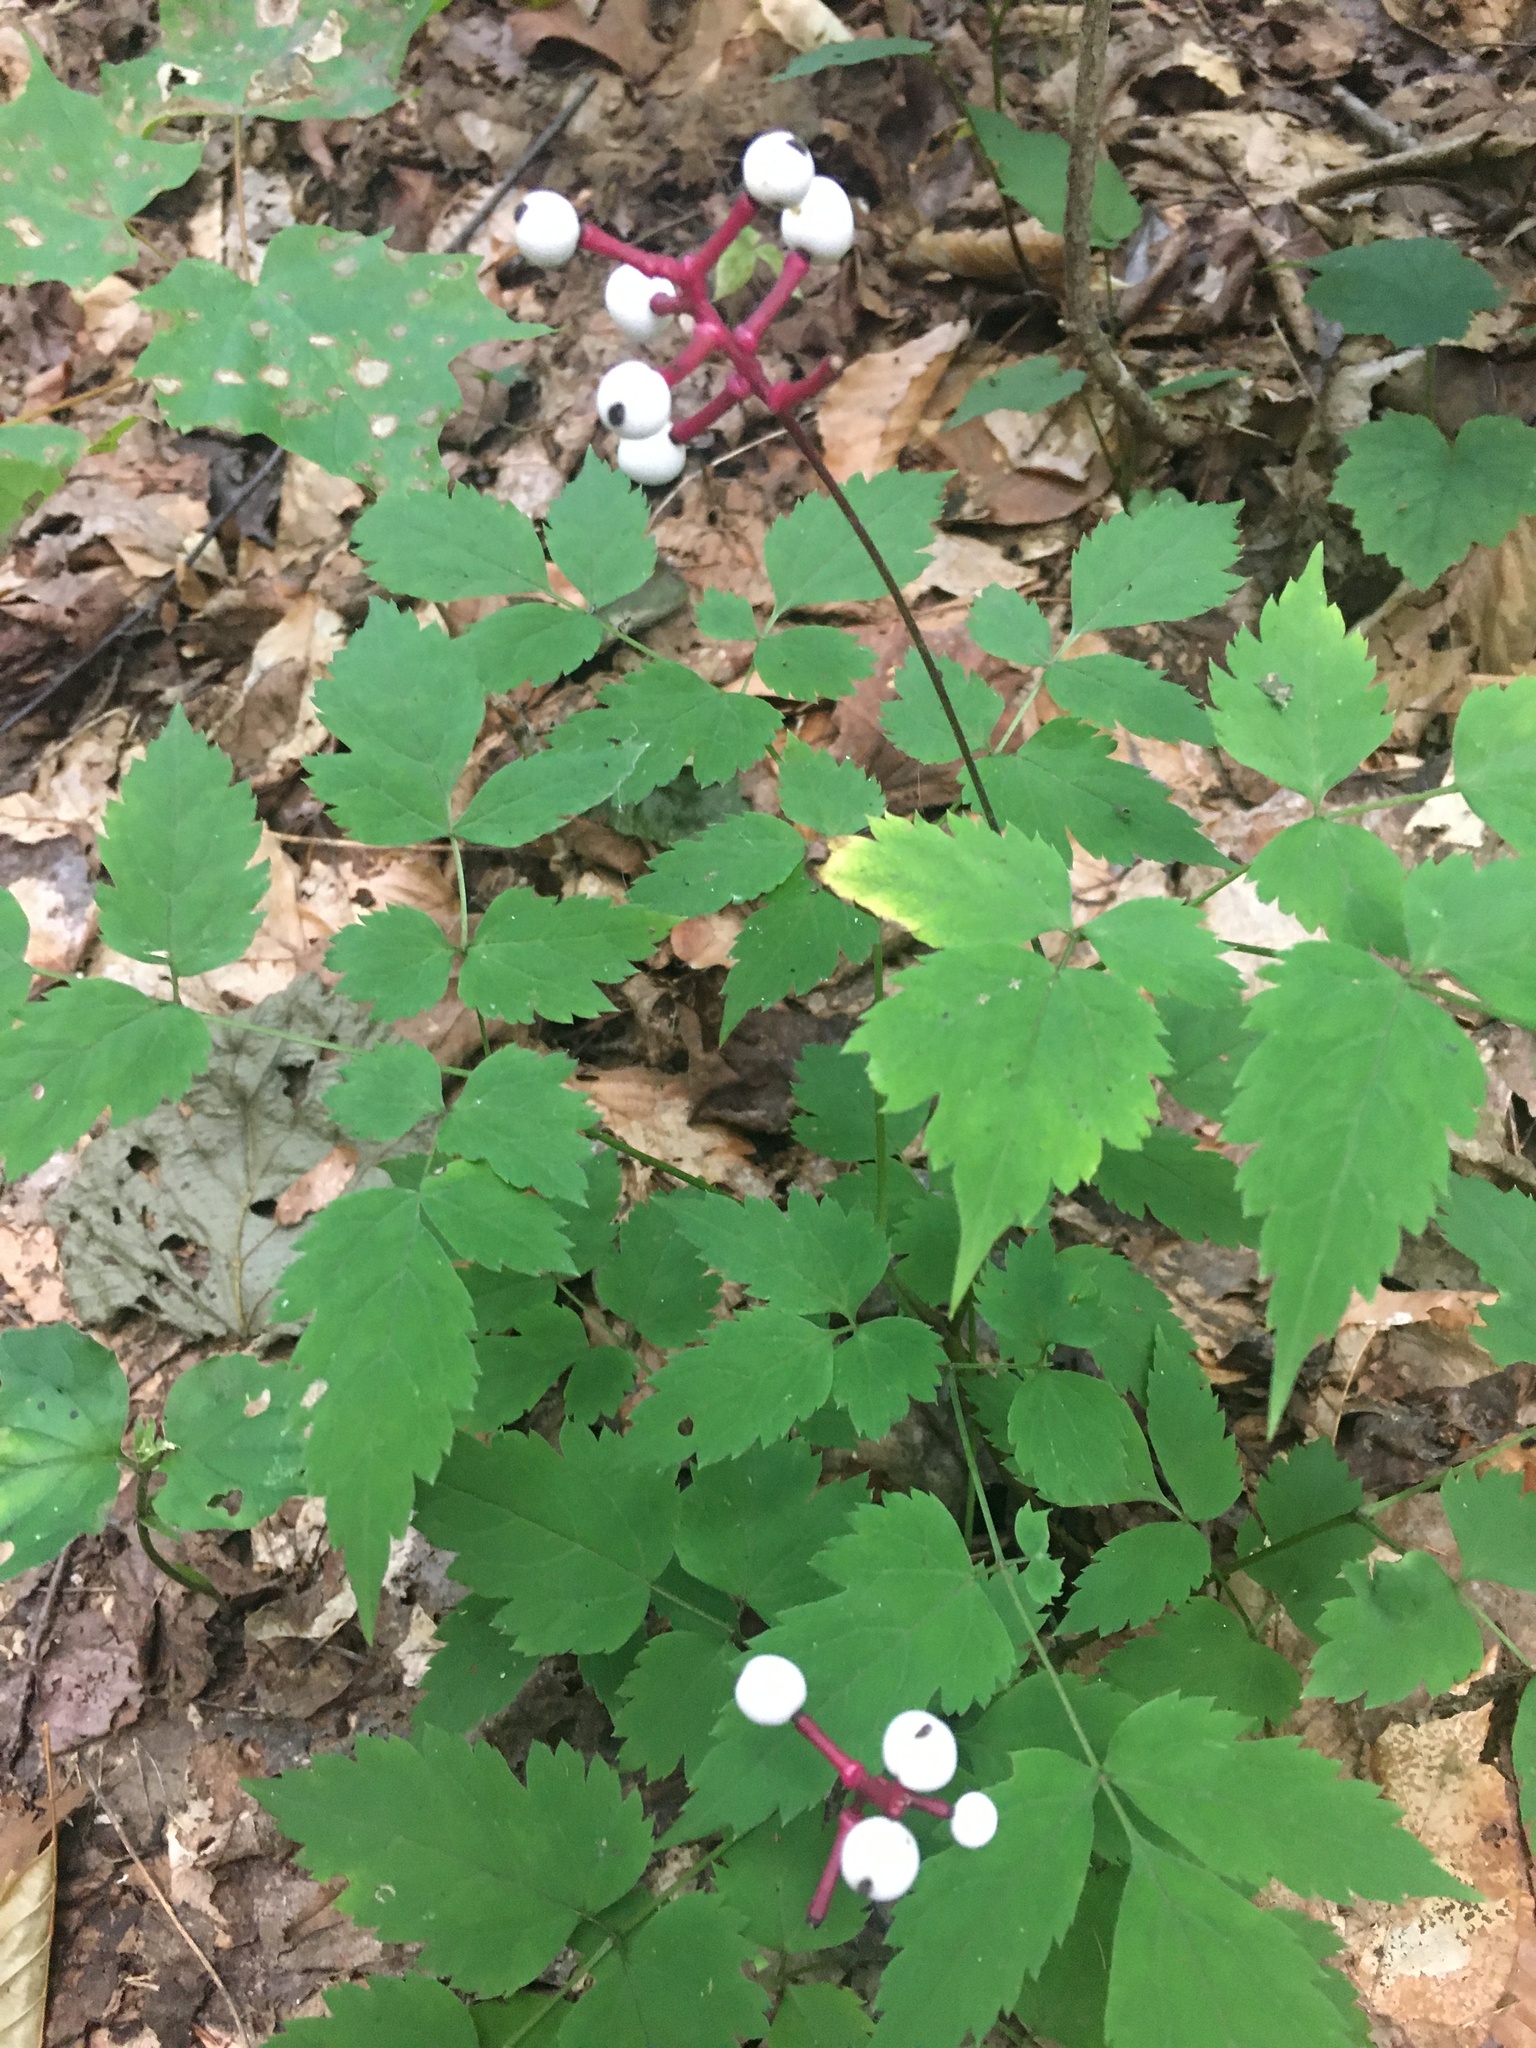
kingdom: Plantae
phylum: Tracheophyta
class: Magnoliopsida
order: Ranunculales
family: Ranunculaceae
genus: Actaea
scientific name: Actaea pachypoda
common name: Doll's-eyes
